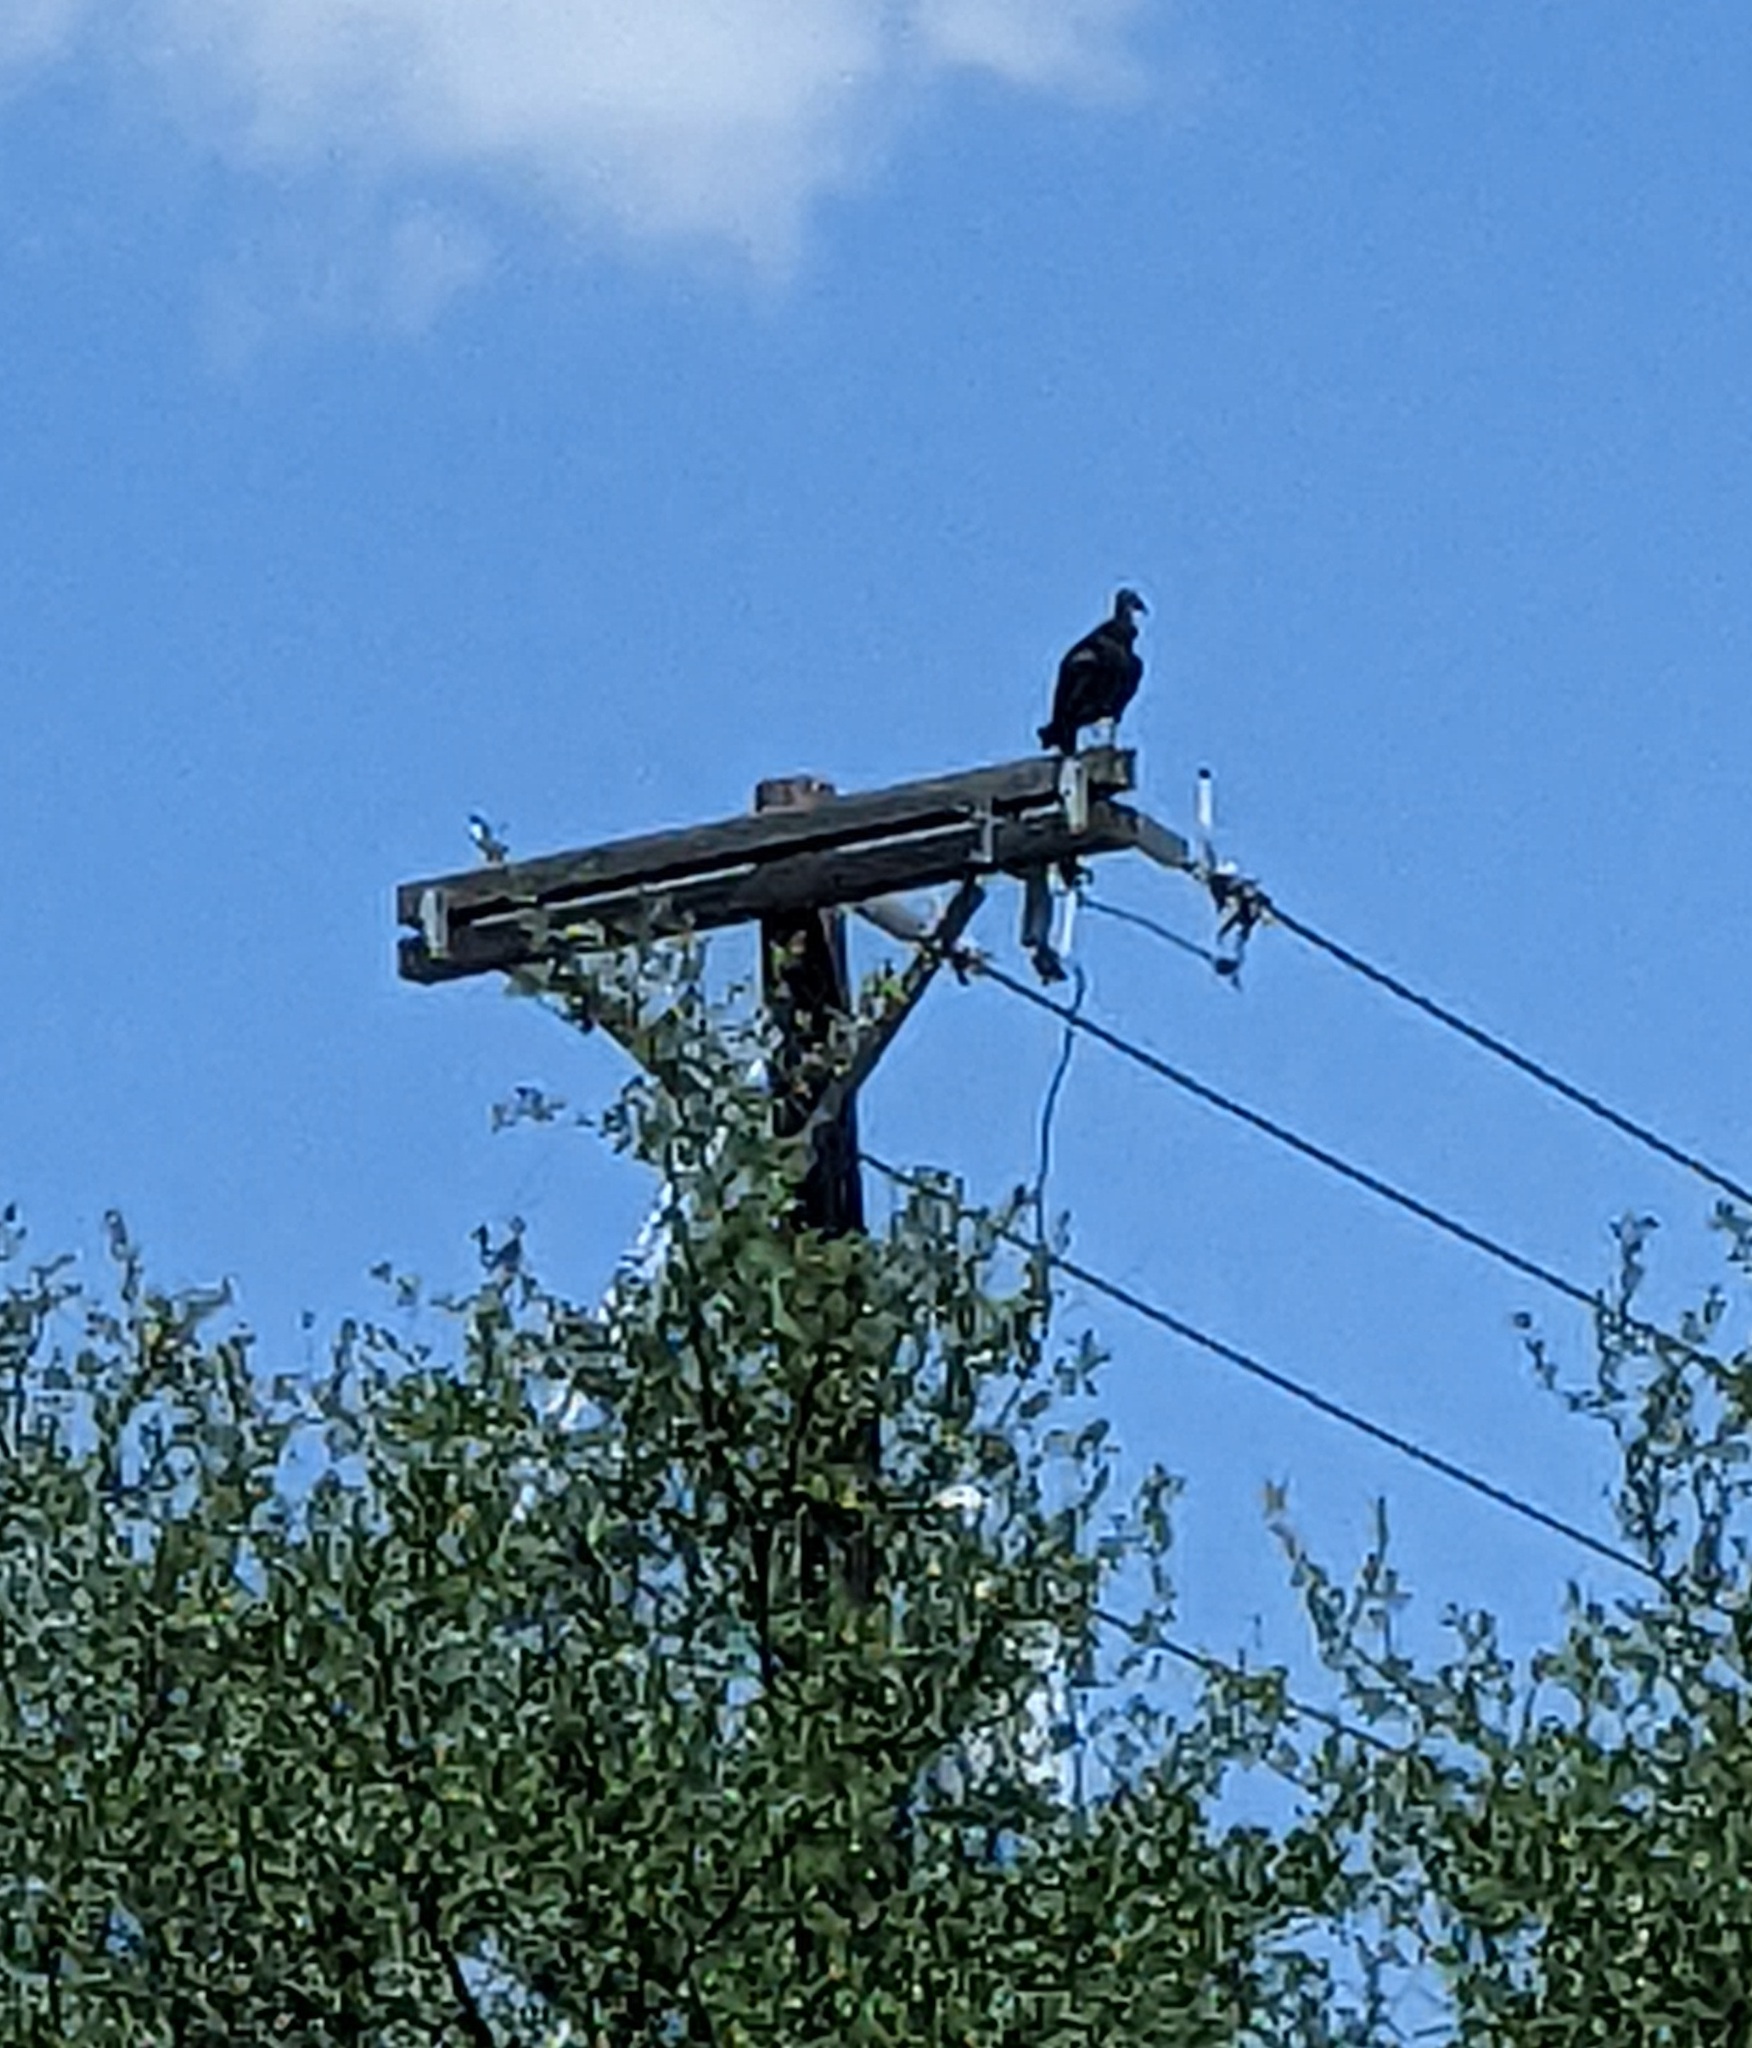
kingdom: Animalia
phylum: Chordata
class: Aves
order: Accipitriformes
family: Cathartidae
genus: Coragyps
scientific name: Coragyps atratus
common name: Black vulture
